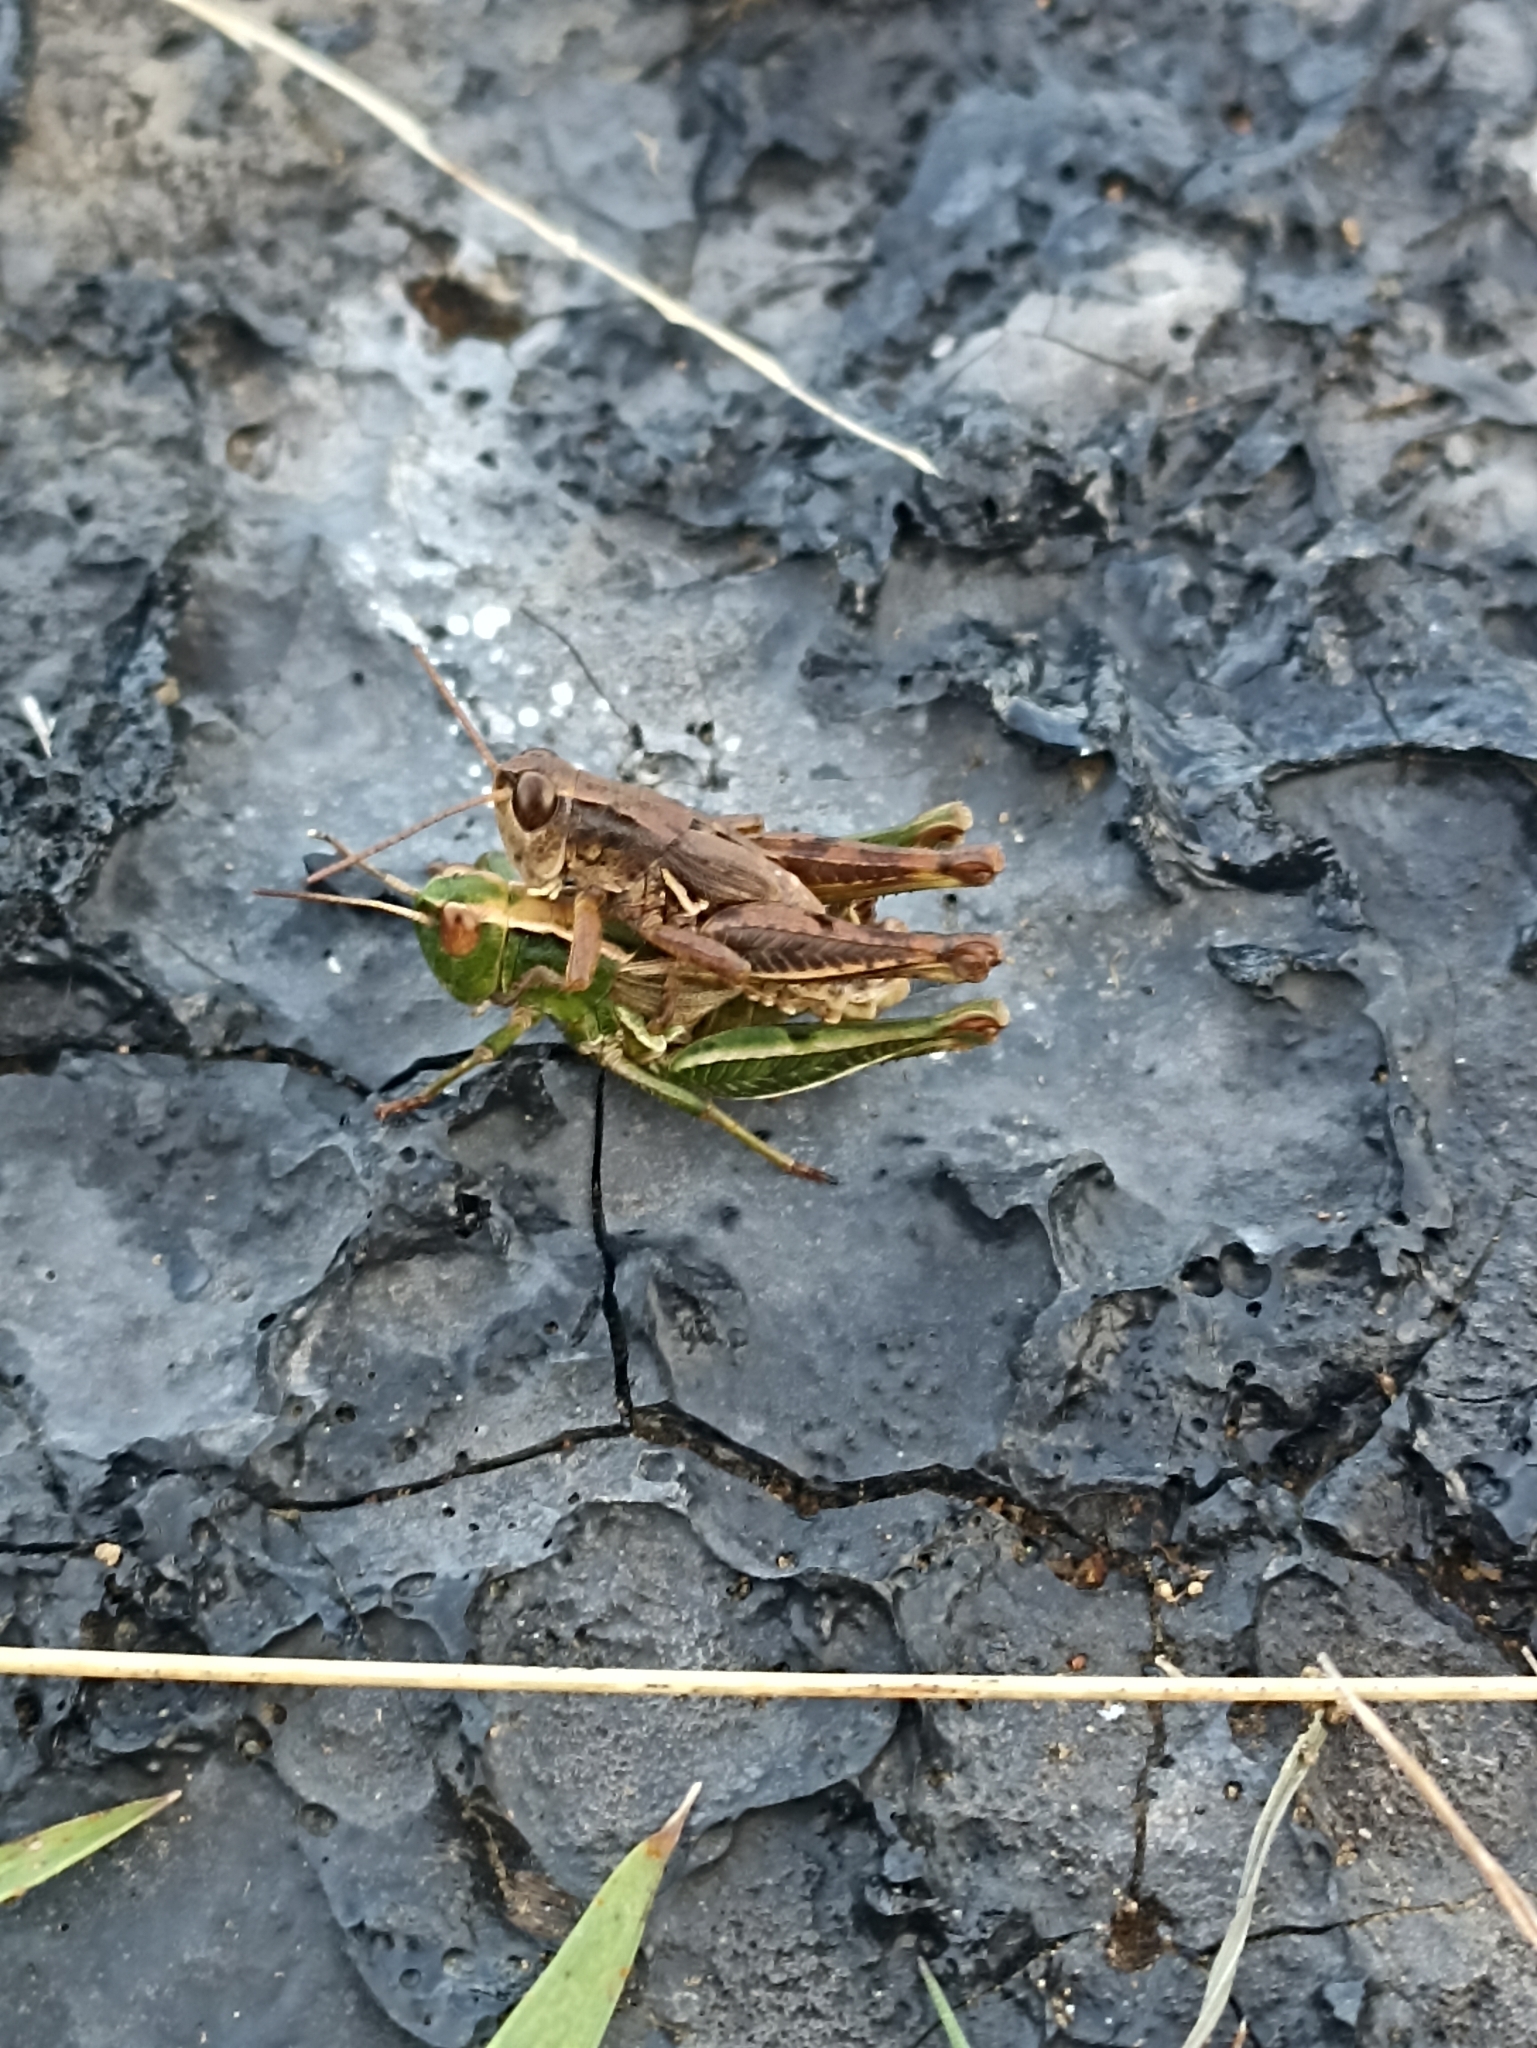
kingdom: Animalia
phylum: Arthropoda
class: Insecta
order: Orthoptera
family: Acrididae
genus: Phaulacridium
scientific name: Phaulacridium marginale
